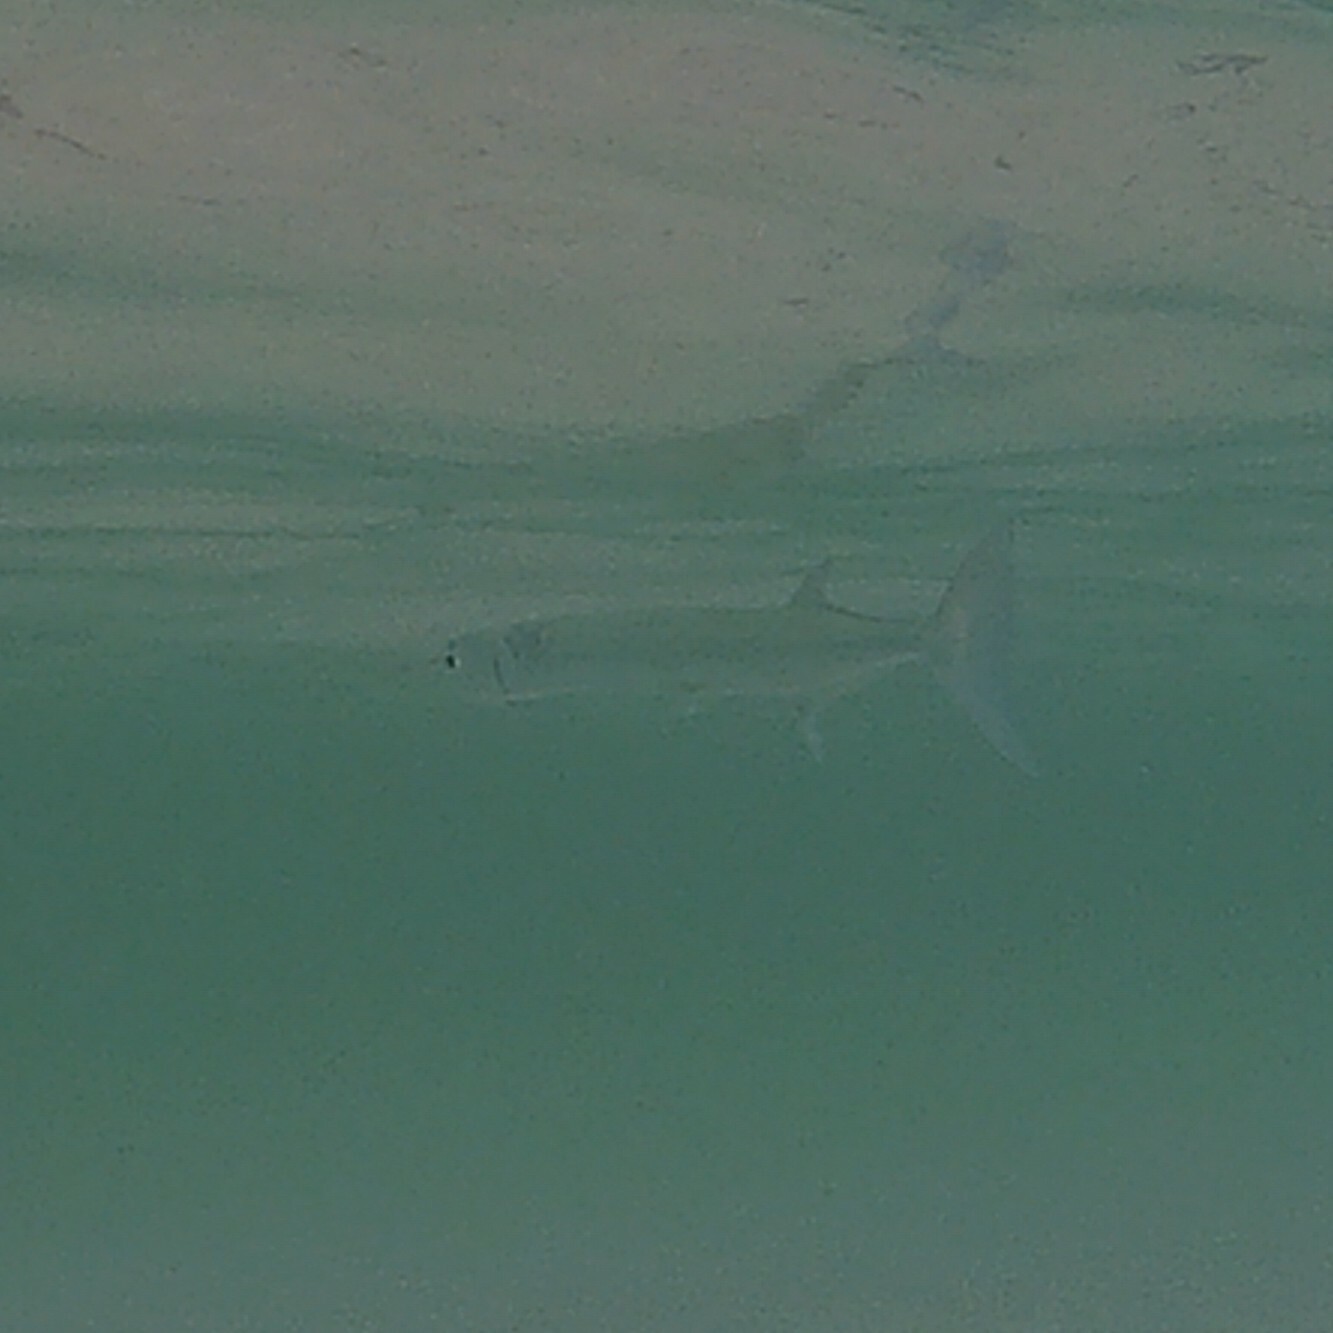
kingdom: Animalia
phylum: Chordata
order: Beloniformes
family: Belonidae
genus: Tylosurus
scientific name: Tylosurus crocodilus
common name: Houndfish
